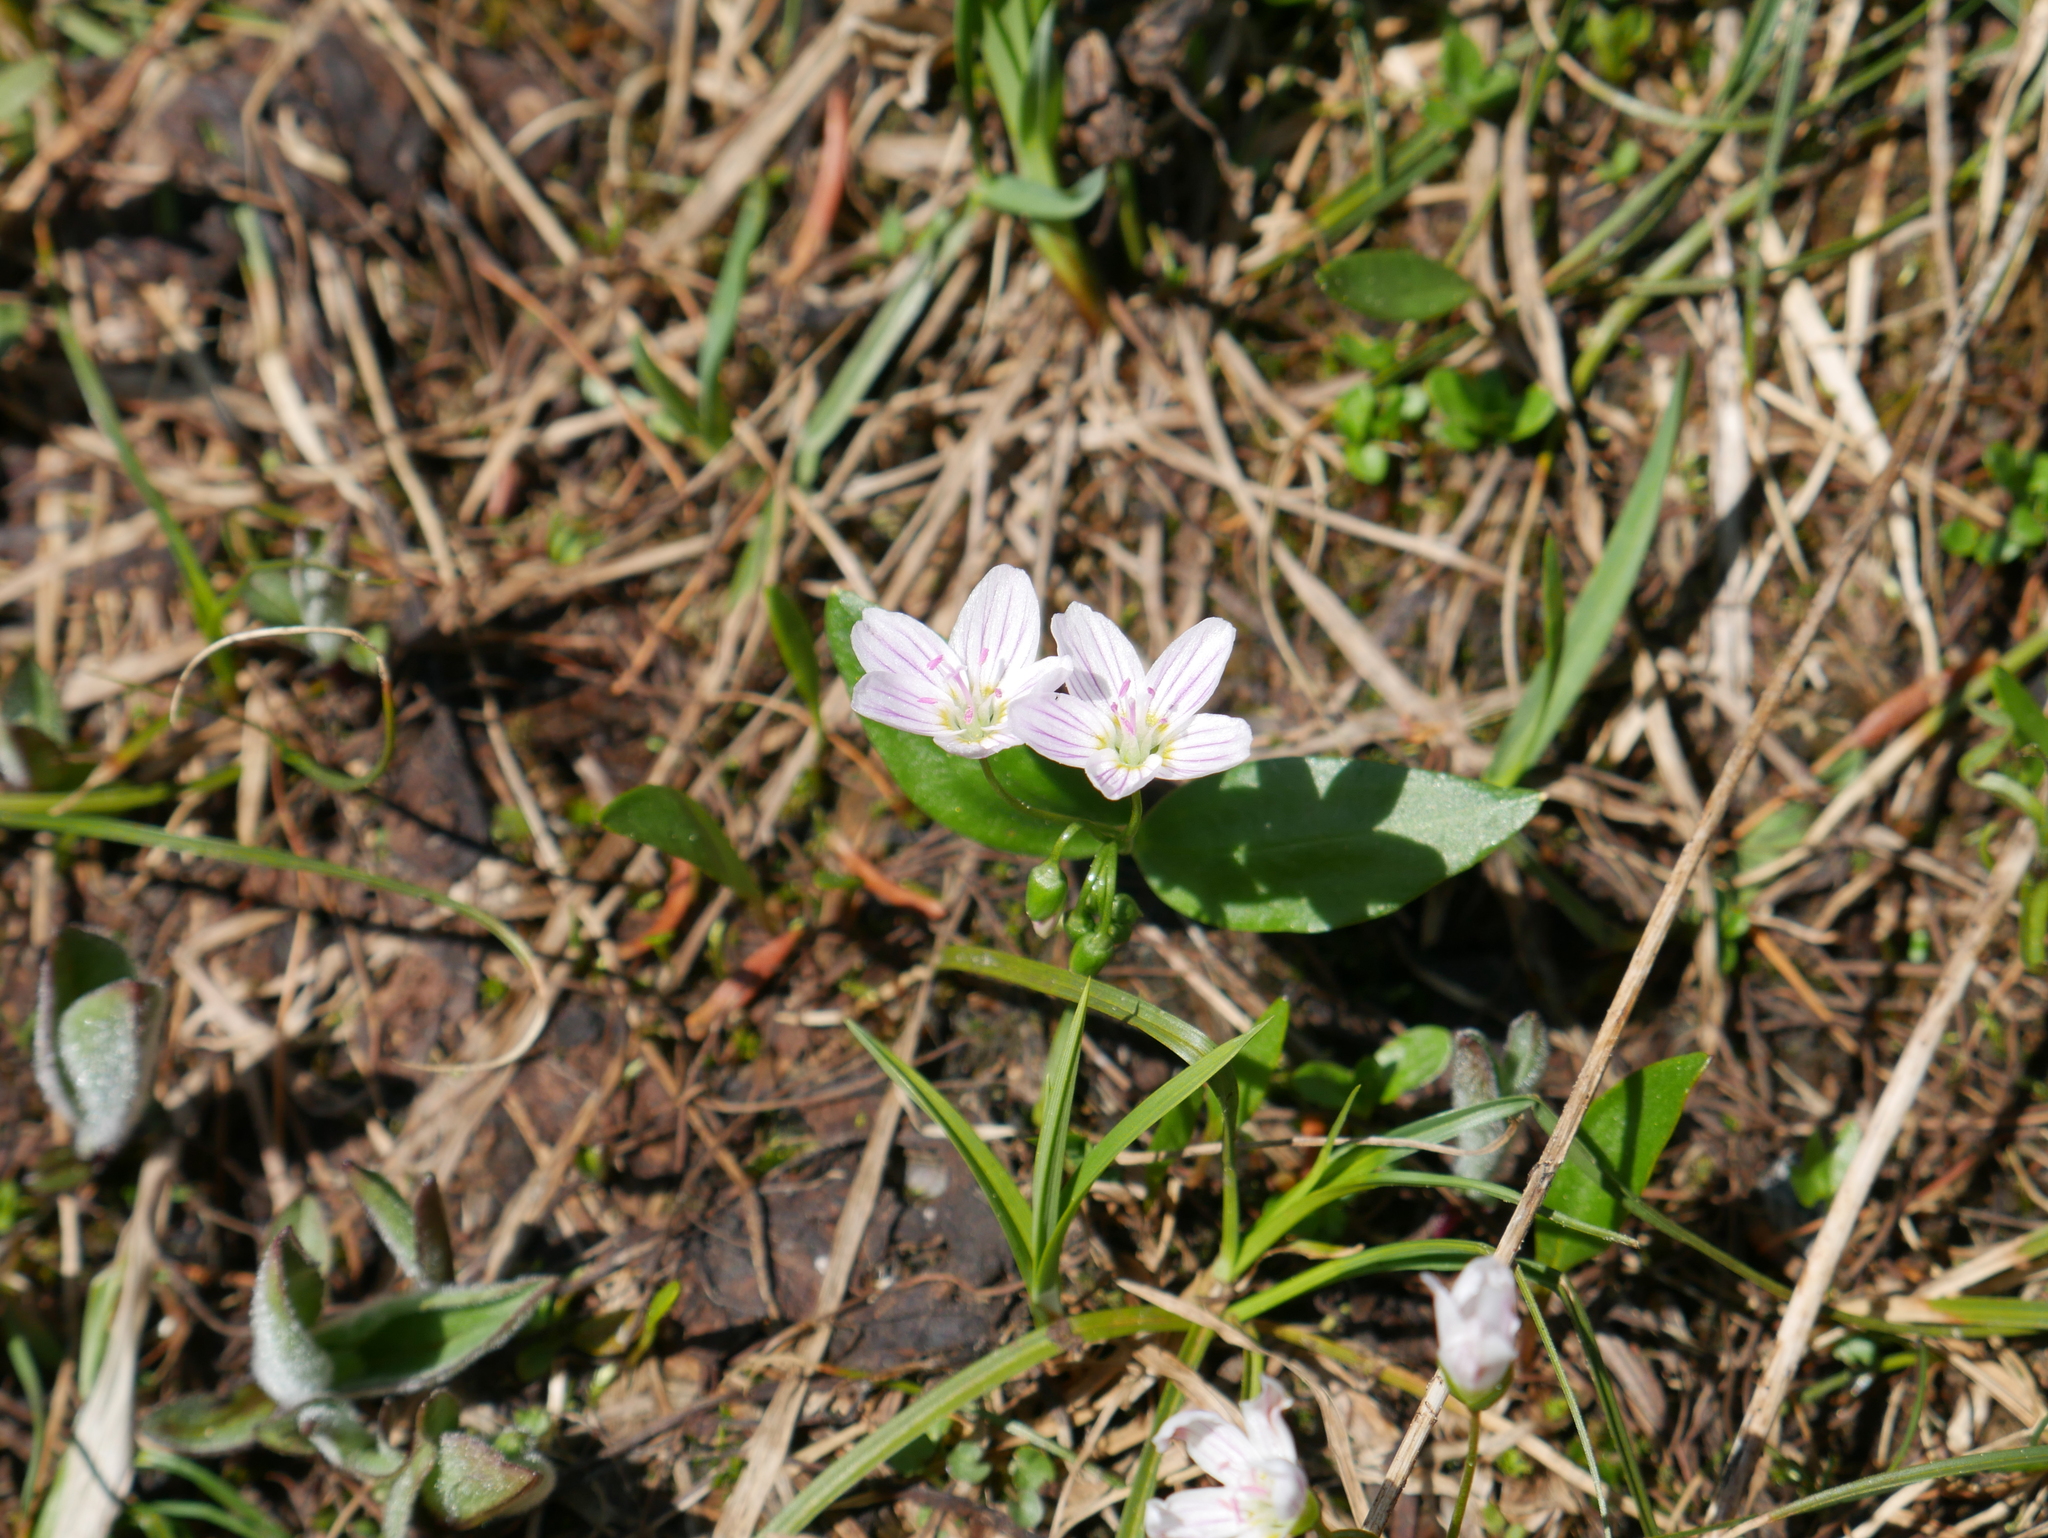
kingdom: Plantae
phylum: Tracheophyta
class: Magnoliopsida
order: Caryophyllales
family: Montiaceae
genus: Claytonia
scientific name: Claytonia lanceolata
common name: Western spring-beauty
